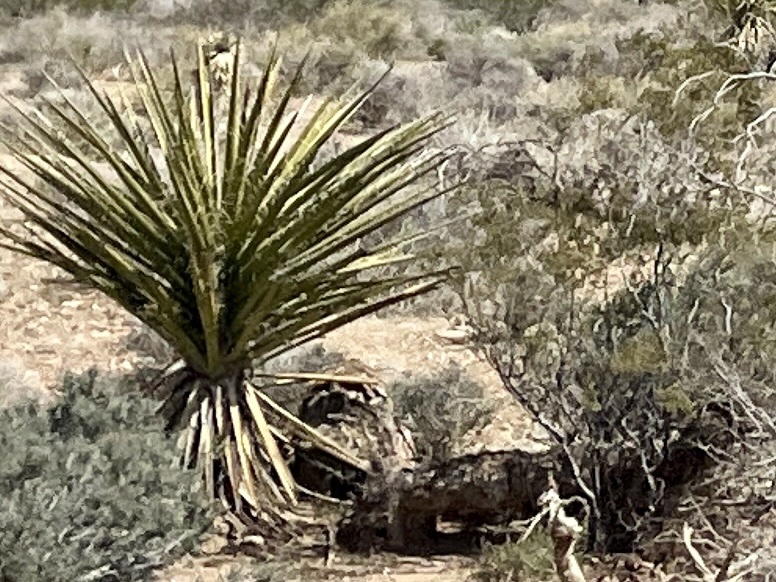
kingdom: Plantae
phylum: Tracheophyta
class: Liliopsida
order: Asparagales
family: Asparagaceae
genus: Yucca
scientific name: Yucca schidigera
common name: Mojave yucca
